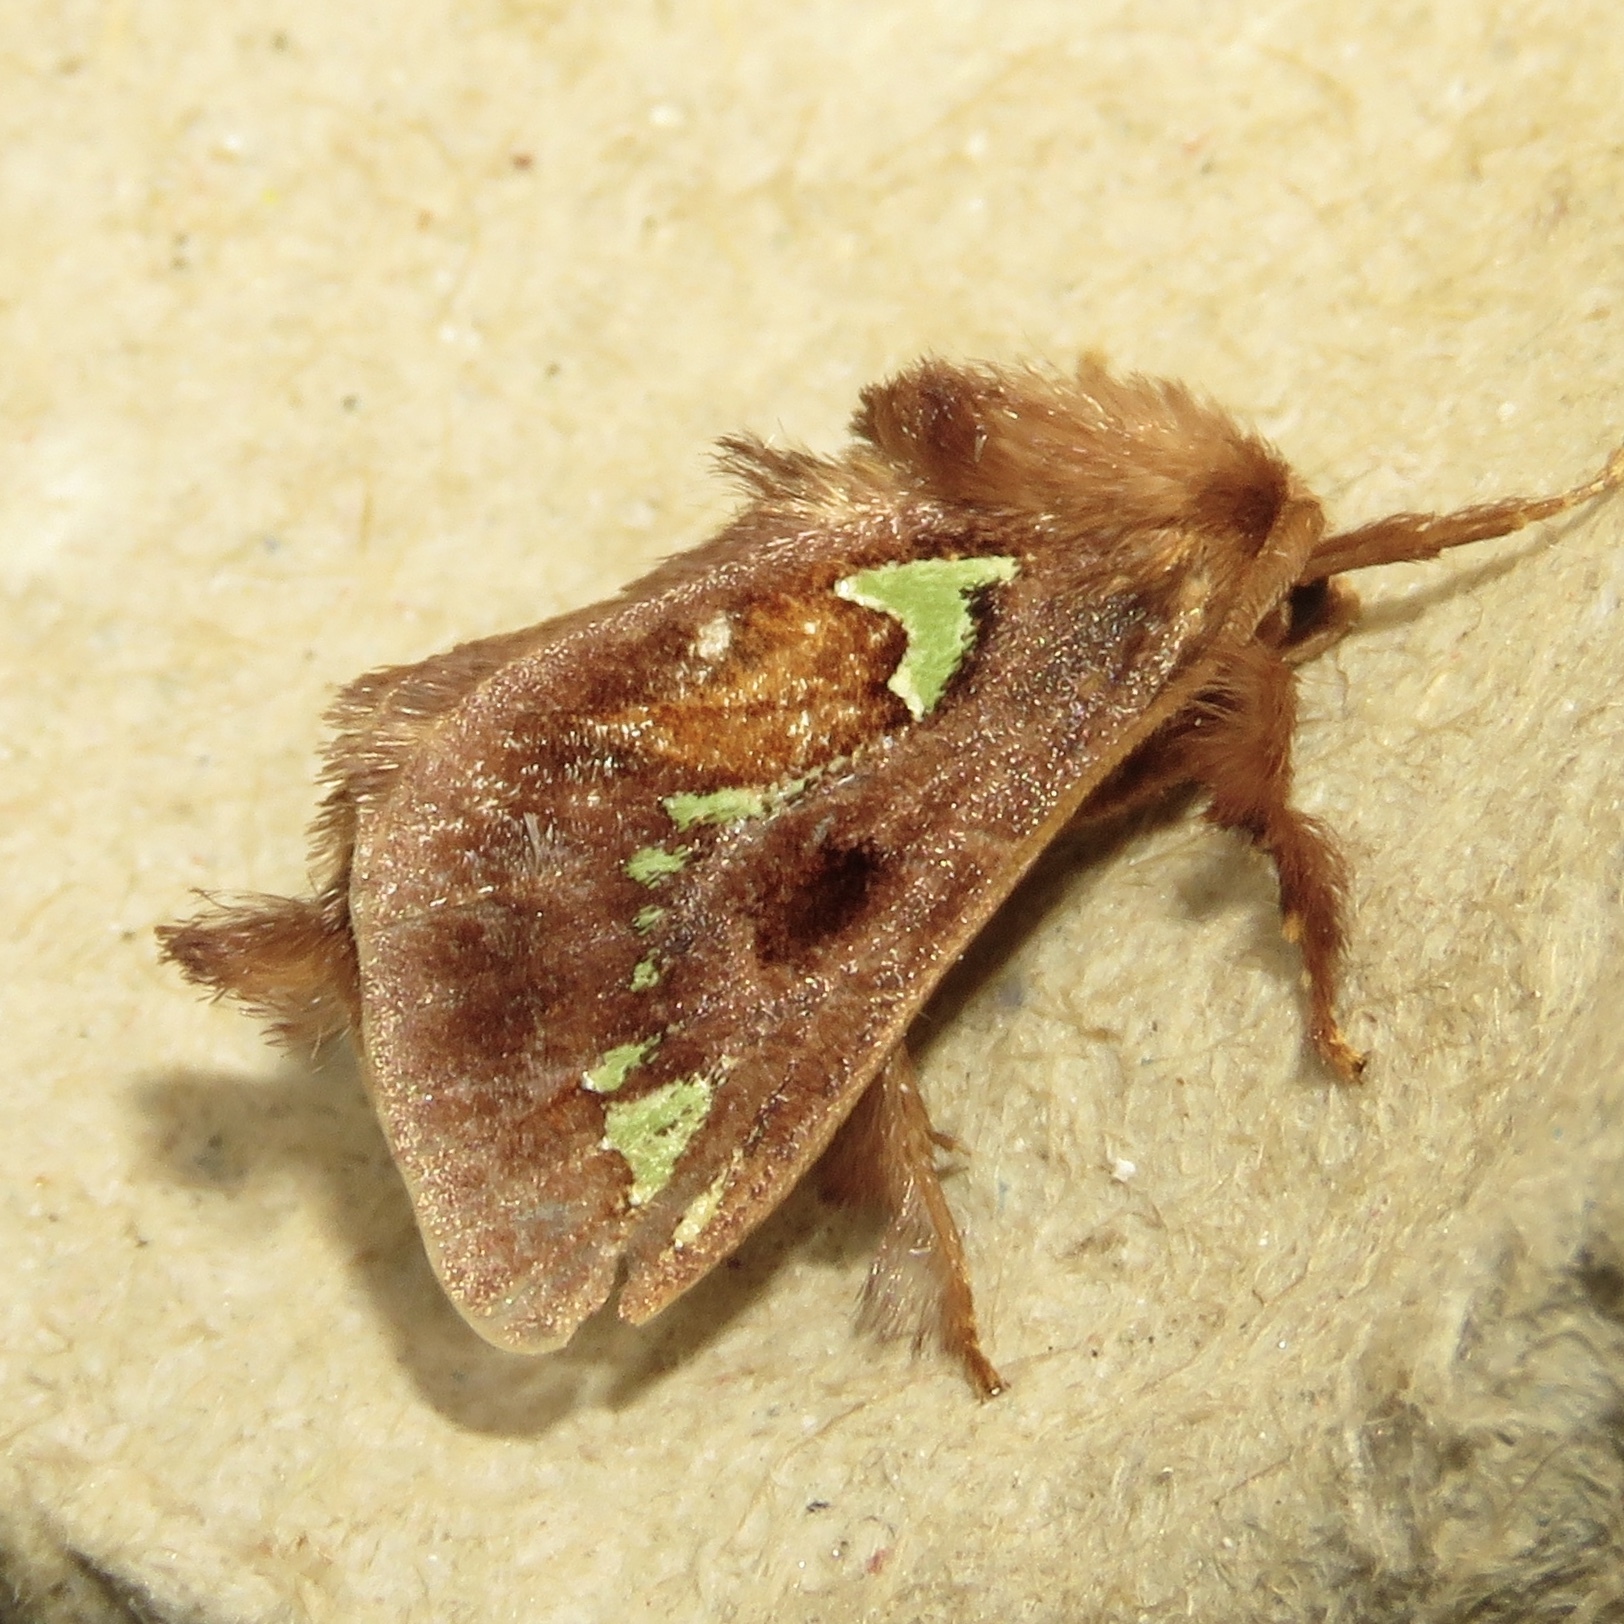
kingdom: Animalia
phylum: Arthropoda
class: Insecta
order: Lepidoptera
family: Limacodidae
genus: Euclea
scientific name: Euclea delphinii
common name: Spiny oak-slug moth
